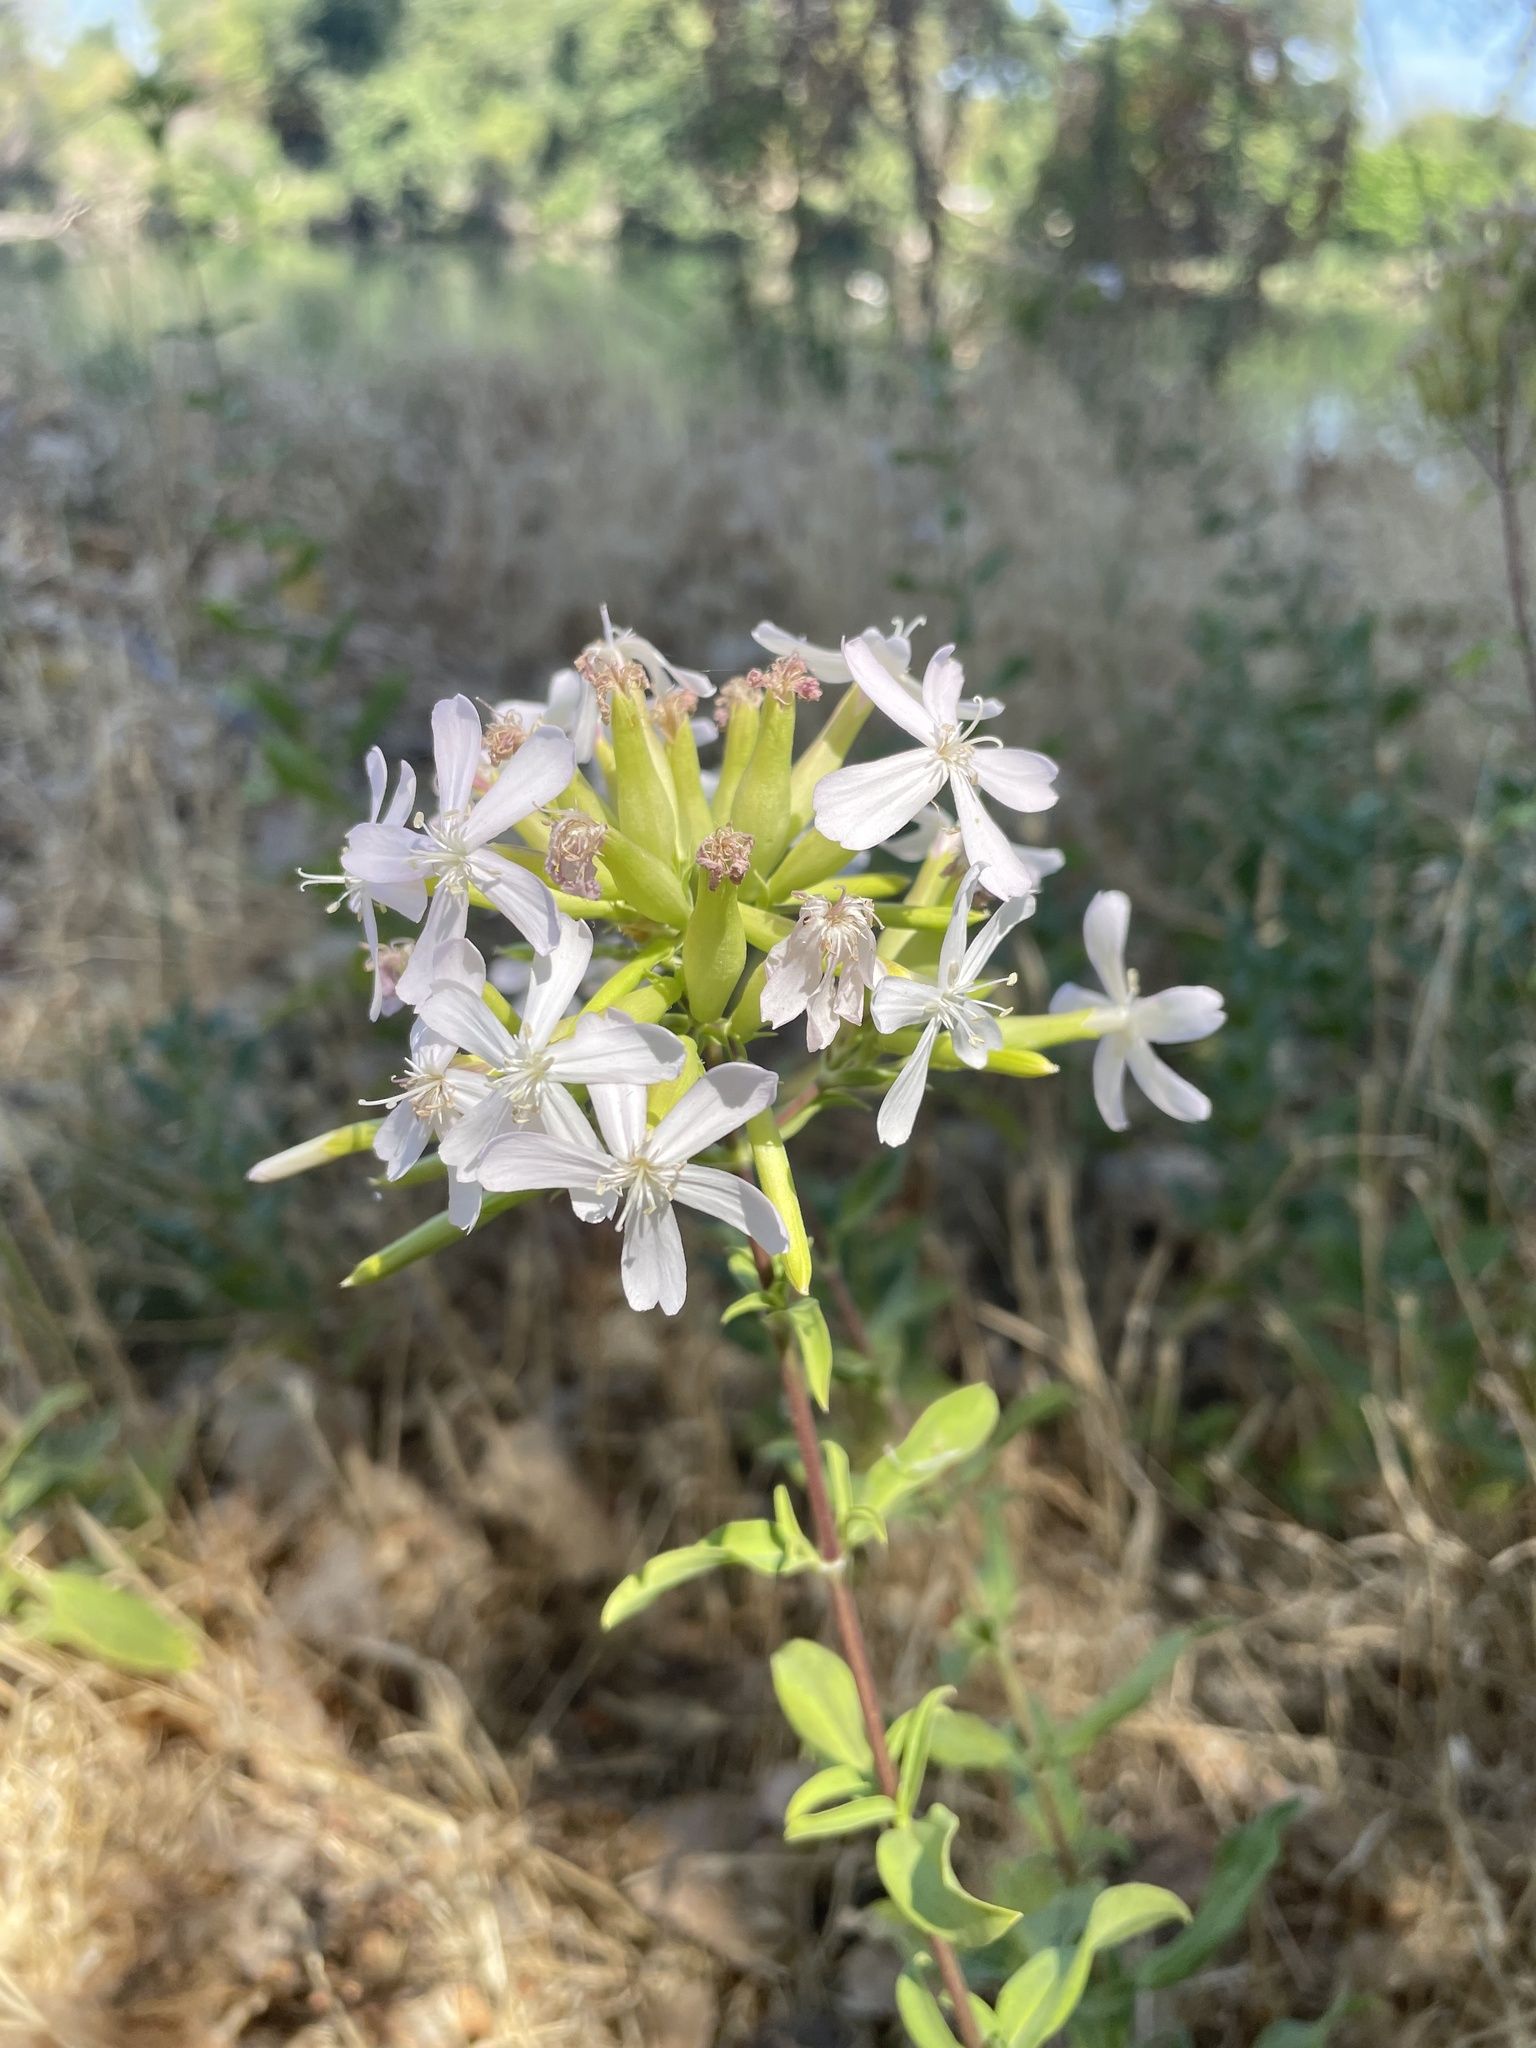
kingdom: Plantae
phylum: Tracheophyta
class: Magnoliopsida
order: Caryophyllales
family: Caryophyllaceae
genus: Saponaria
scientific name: Saponaria officinalis
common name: Soapwort
